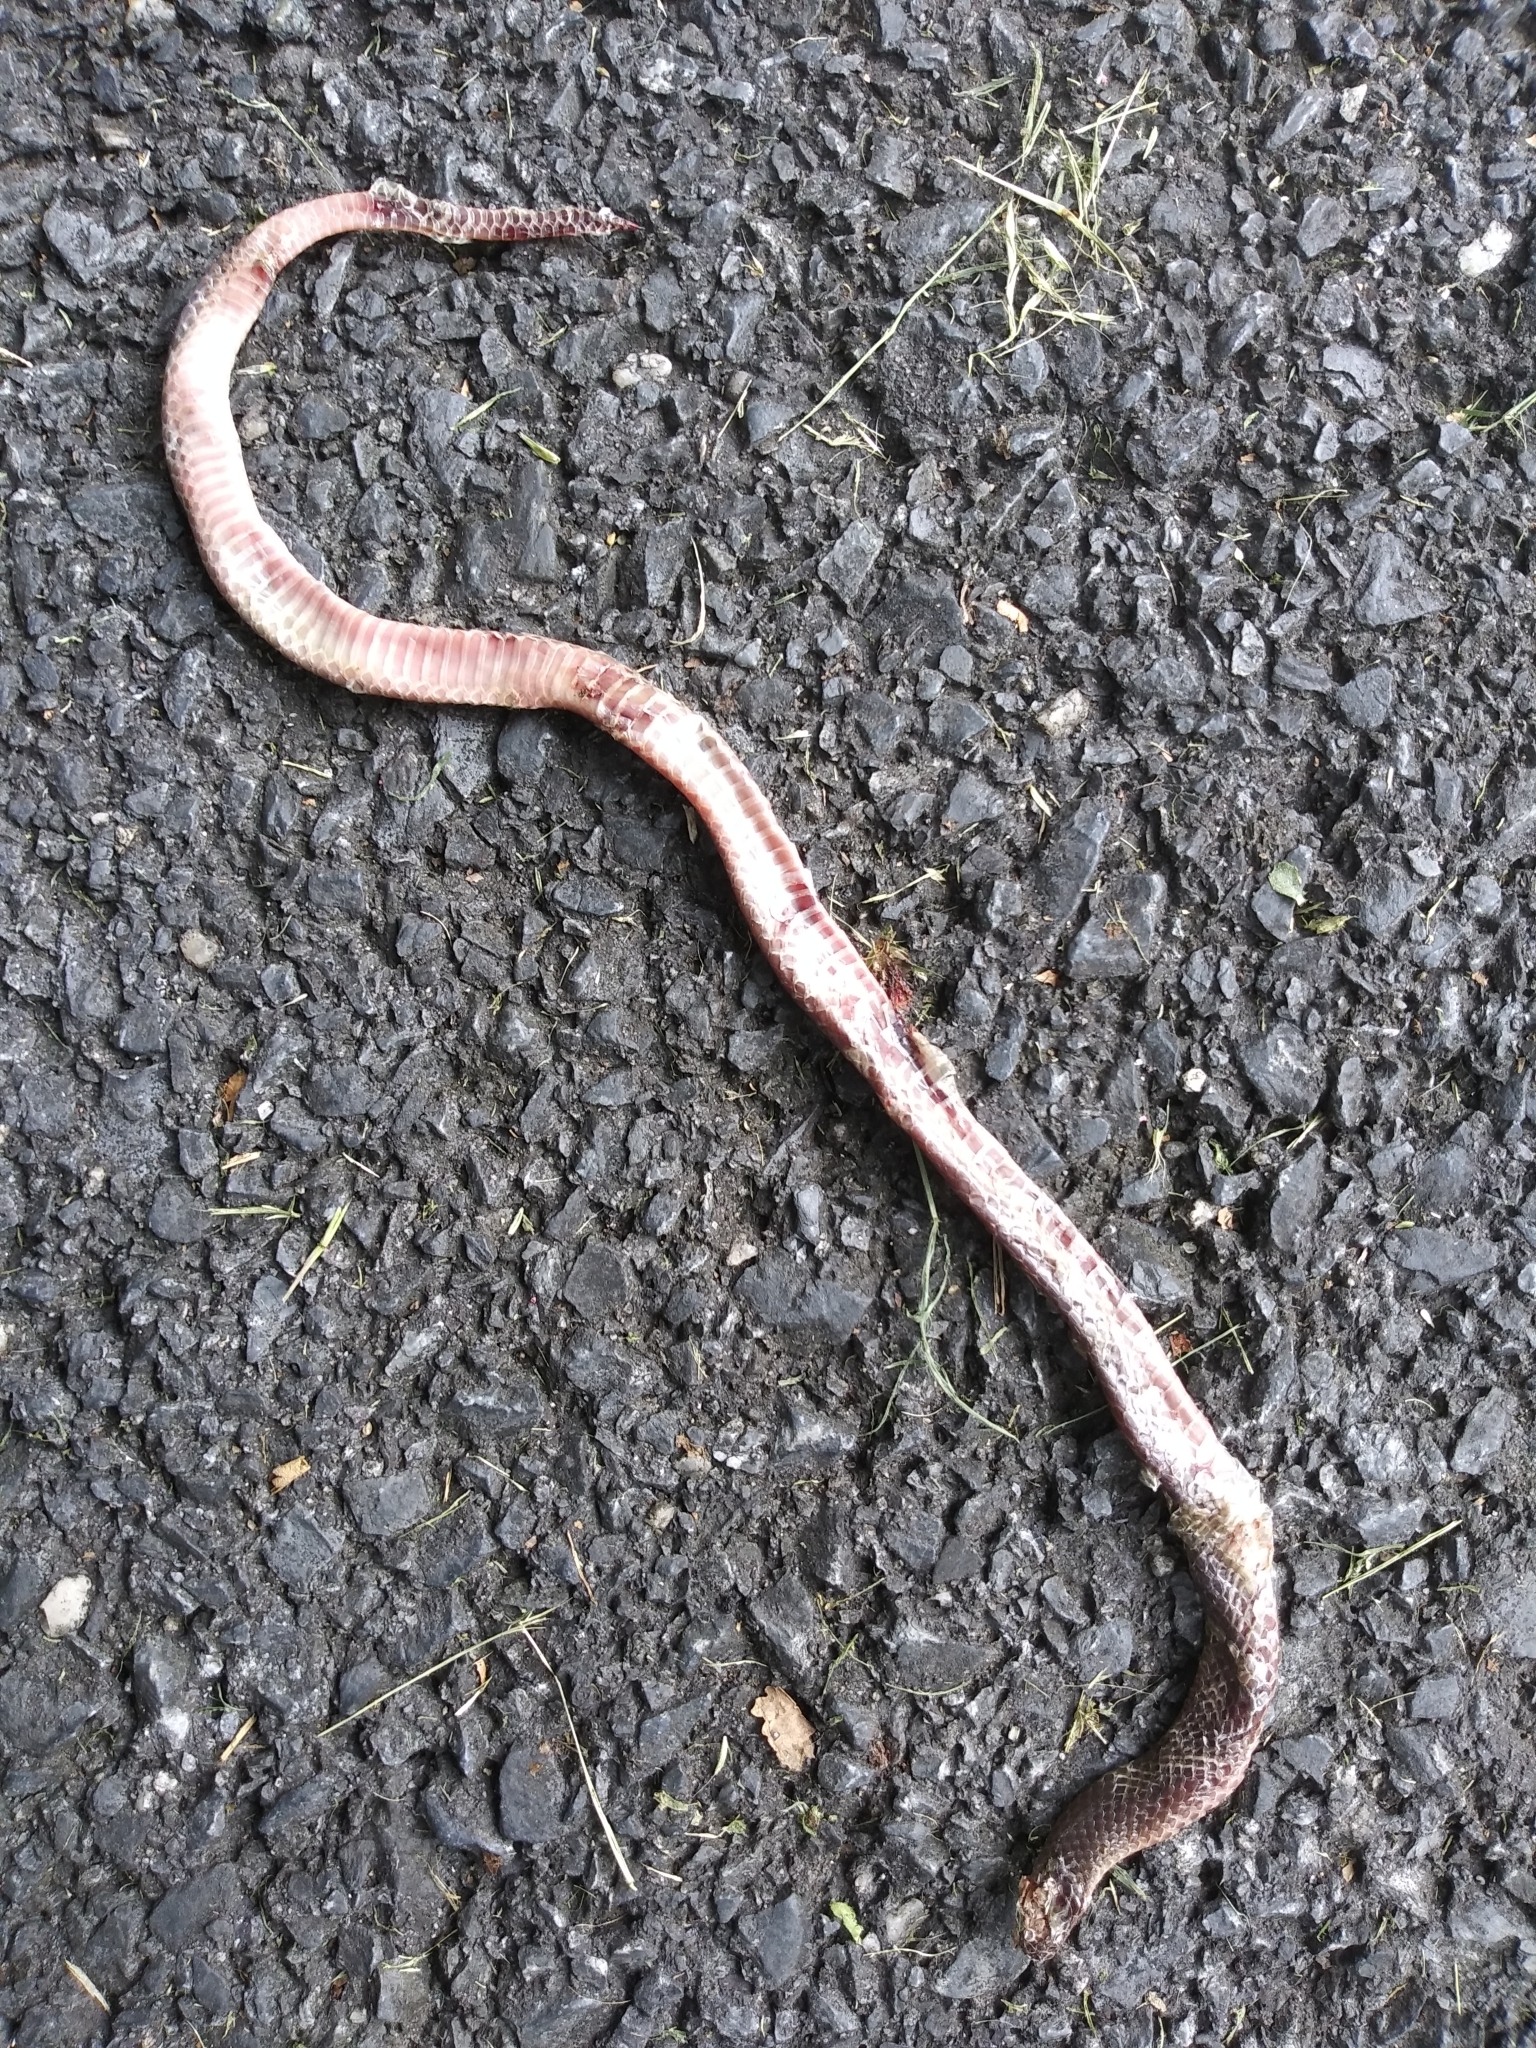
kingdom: Animalia
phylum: Chordata
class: Squamata
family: Colubridae
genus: Carphophis
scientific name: Carphophis amoenus
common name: Eastern worm snake
